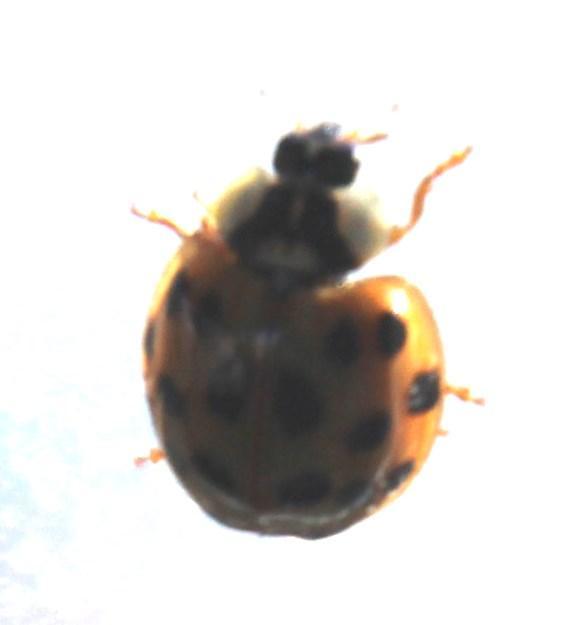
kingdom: Animalia
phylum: Arthropoda
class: Insecta
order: Coleoptera
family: Coccinellidae
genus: Harmonia
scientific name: Harmonia axyridis
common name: Harlequin ladybird
